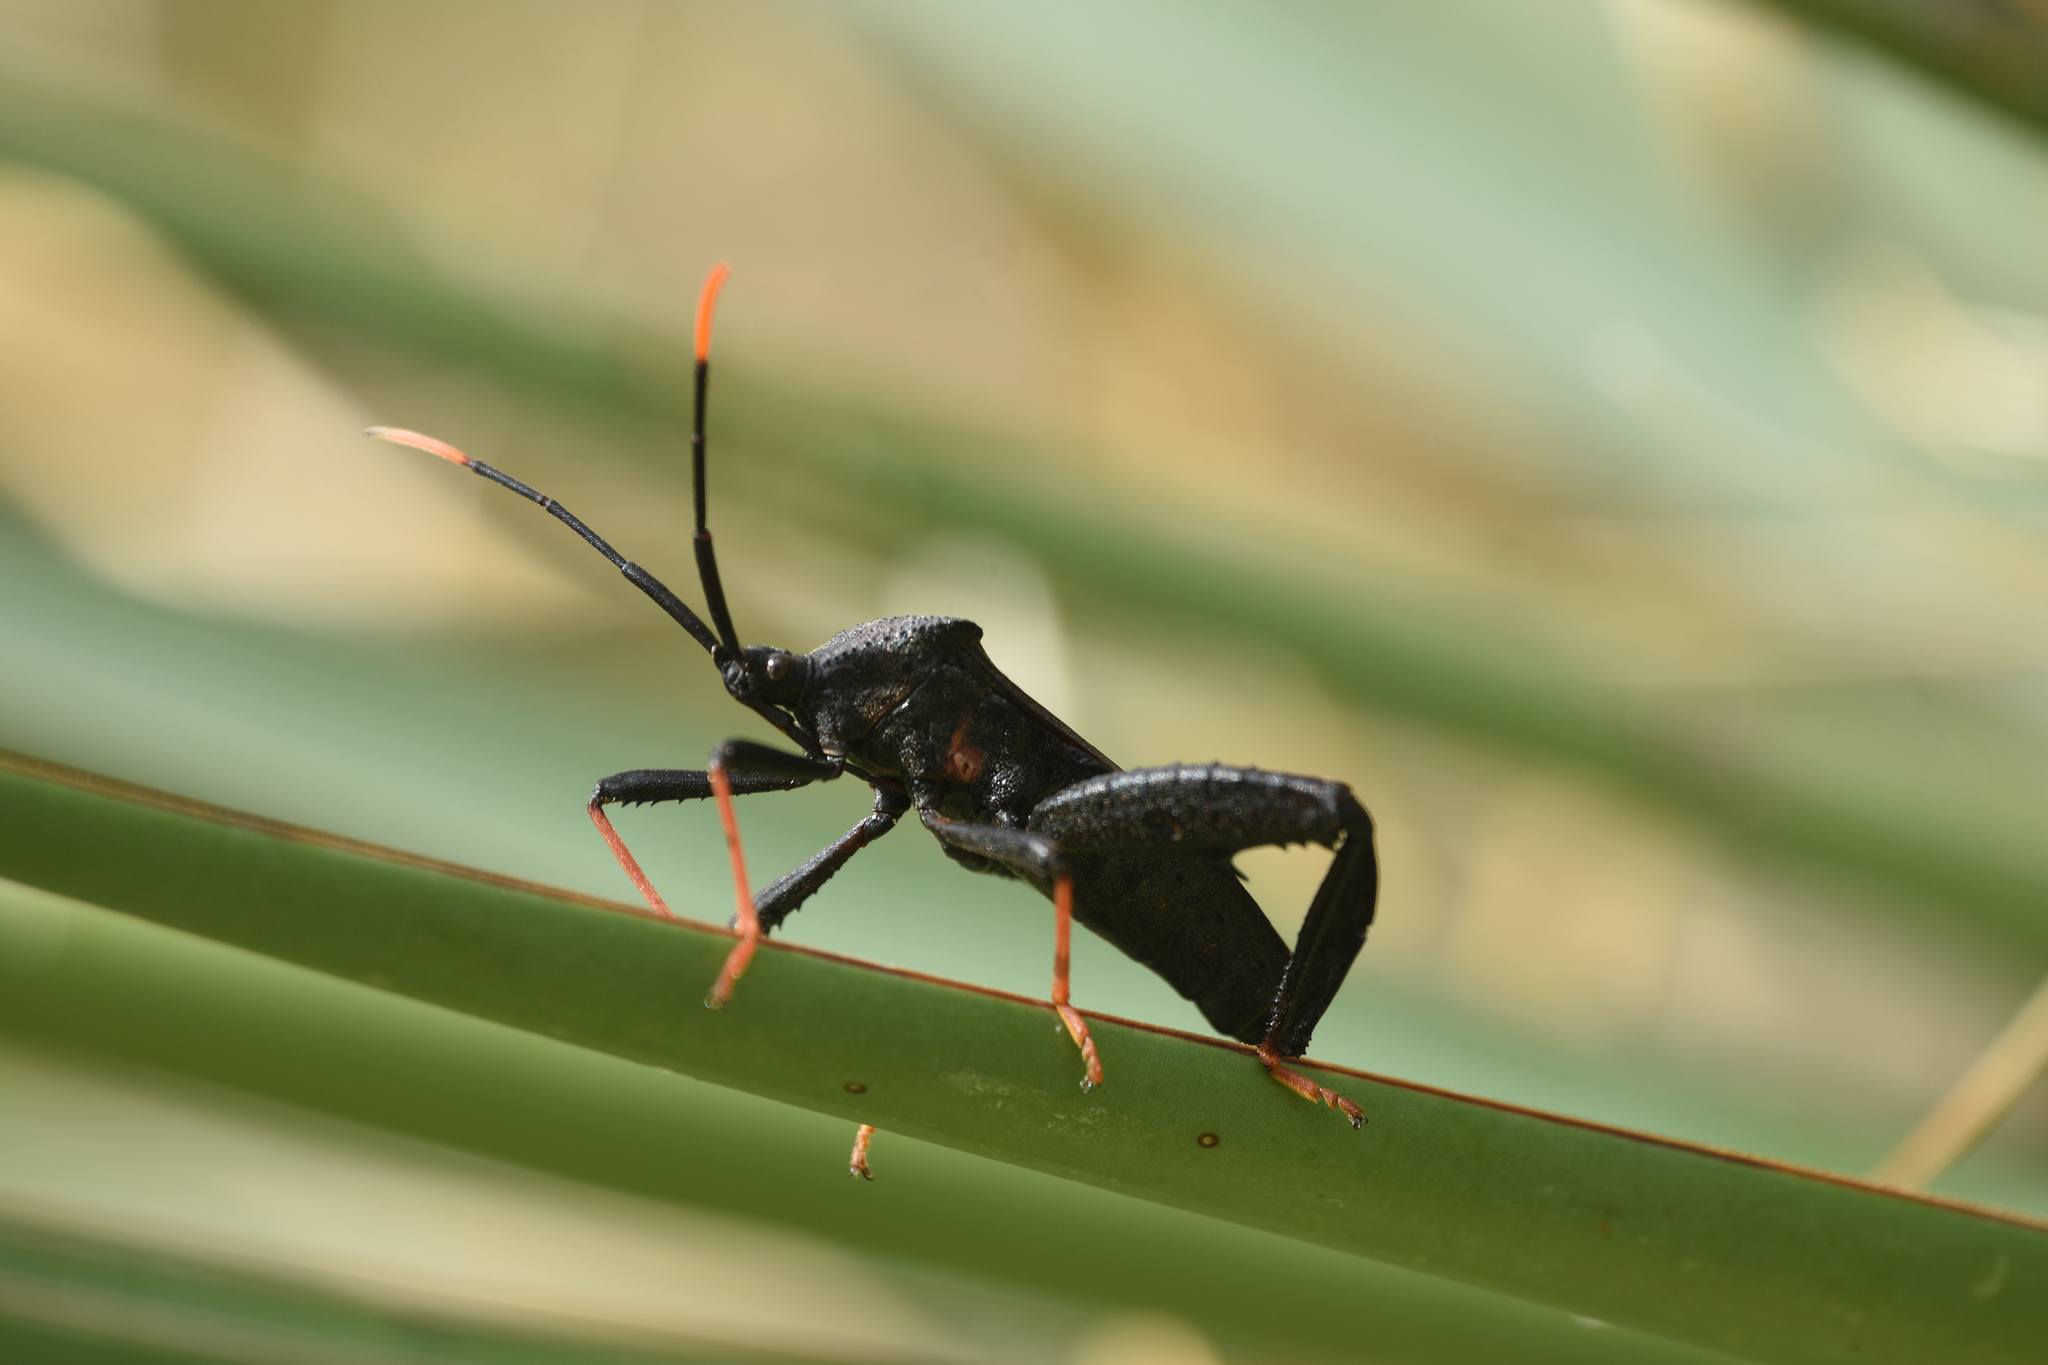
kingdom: Animalia
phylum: Arthropoda
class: Insecta
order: Hemiptera
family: Coreidae
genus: Acanthocephala
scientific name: Acanthocephala thomasi
